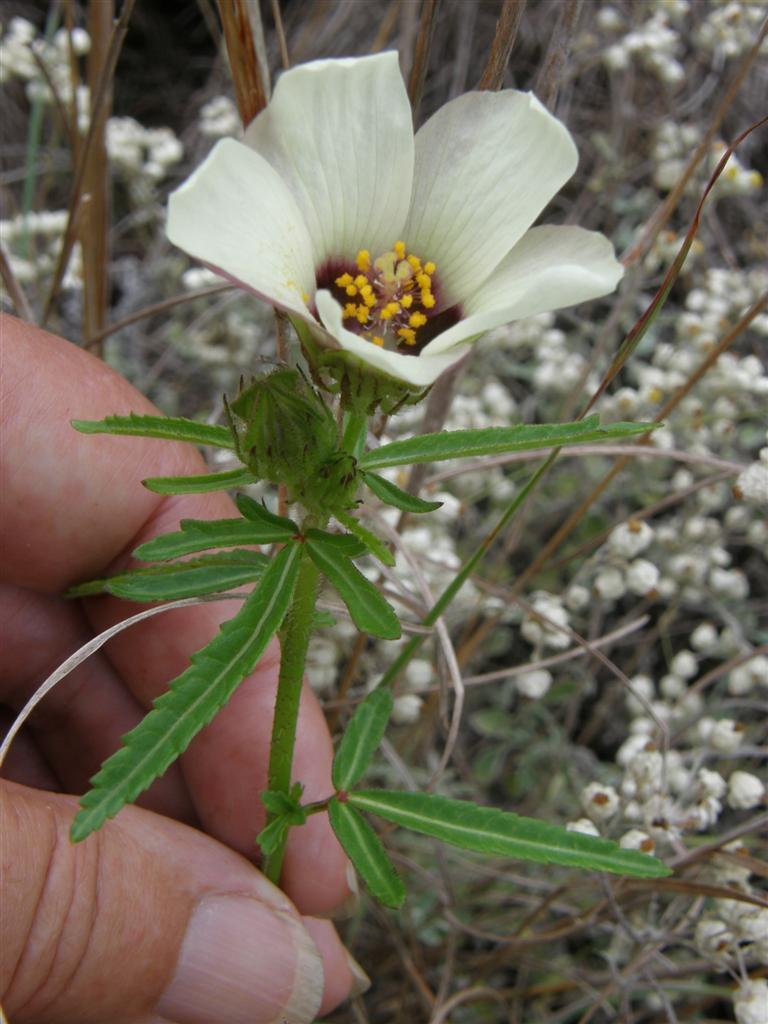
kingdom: Plantae
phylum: Tracheophyta
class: Magnoliopsida
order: Malvales
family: Malvaceae
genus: Hibiscus
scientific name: Hibiscus trionum
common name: Bladder ketmia
